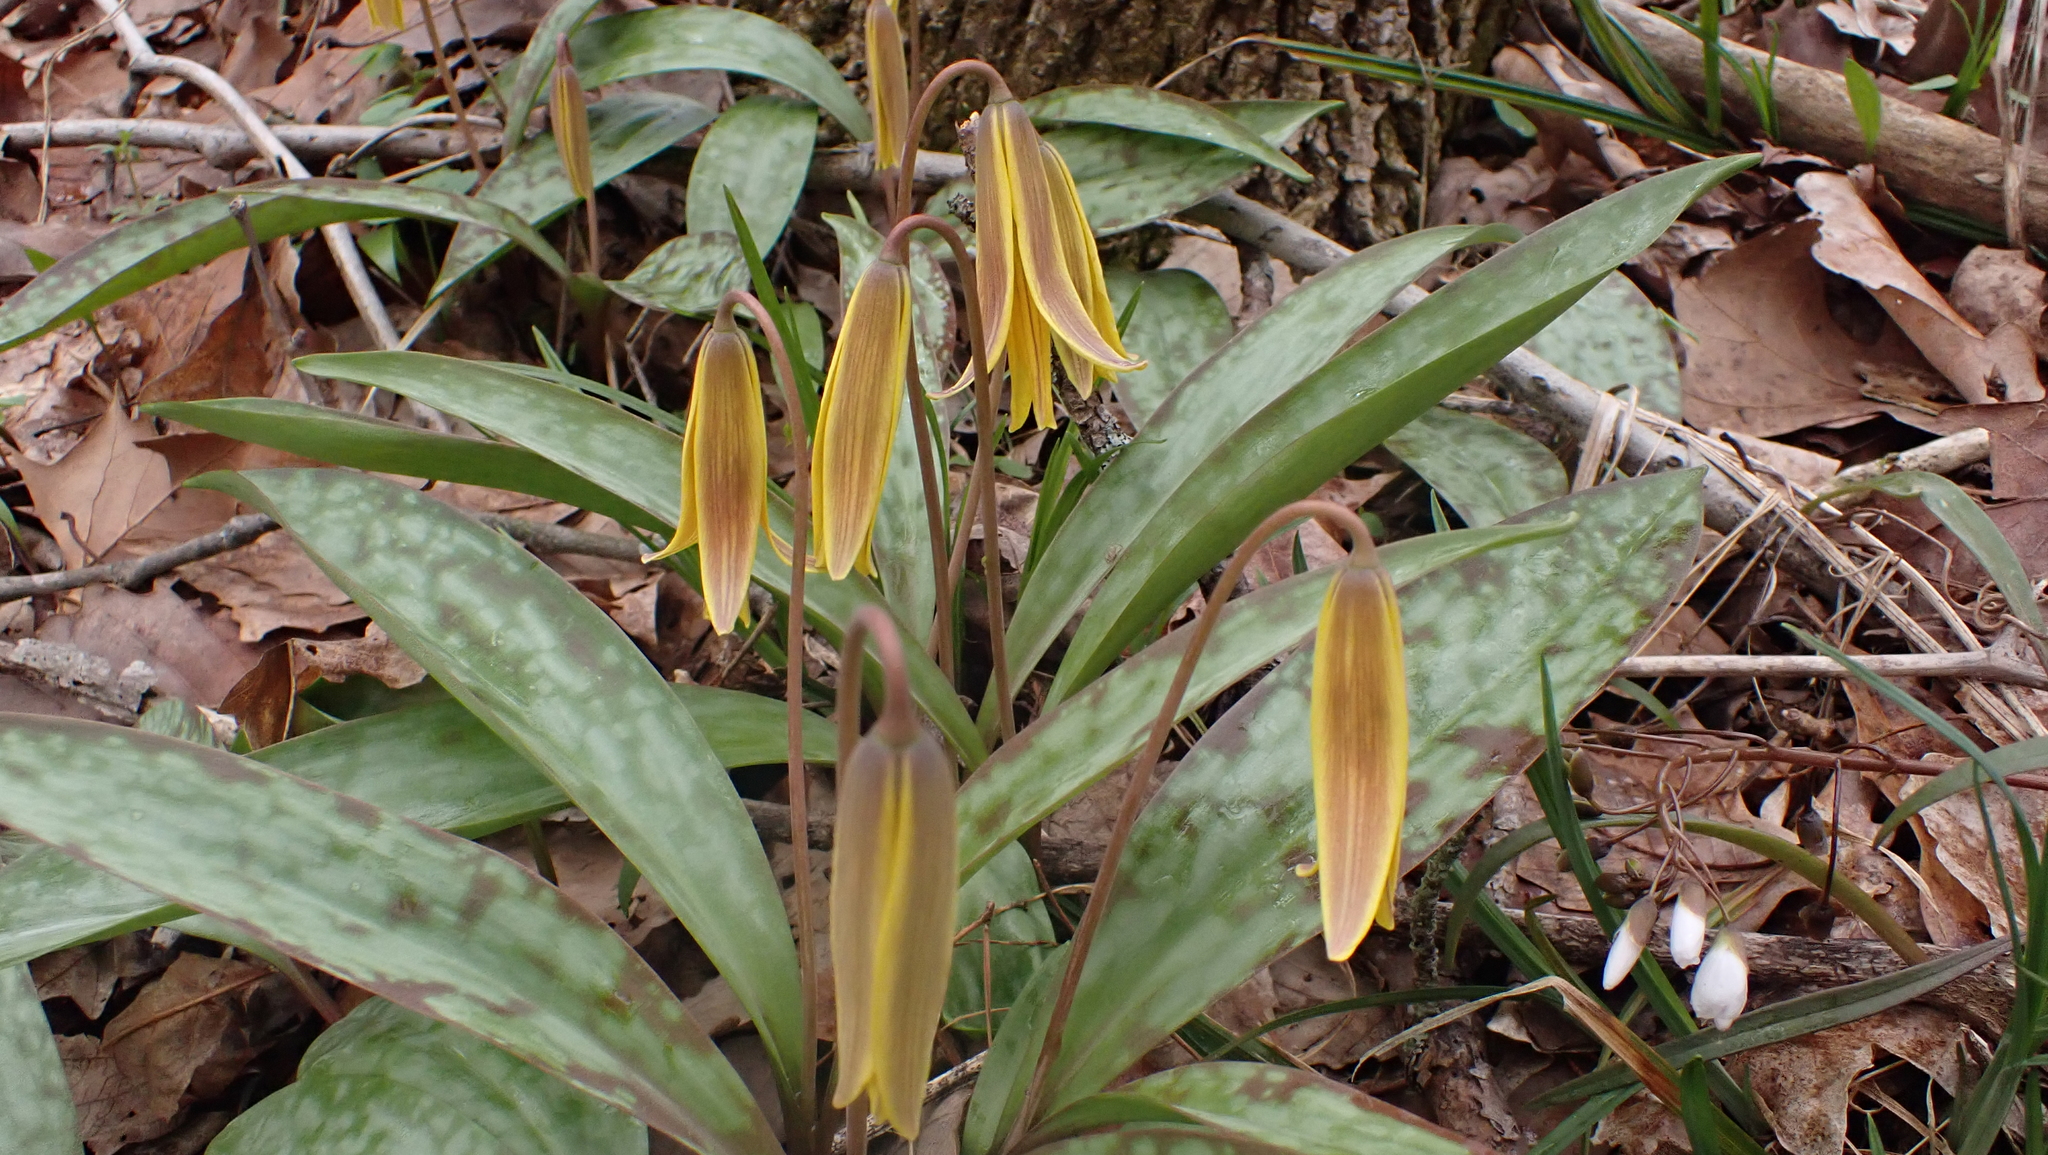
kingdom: Plantae
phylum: Tracheophyta
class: Liliopsida
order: Liliales
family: Liliaceae
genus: Erythronium
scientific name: Erythronium americanum
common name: Yellow adder's-tongue
